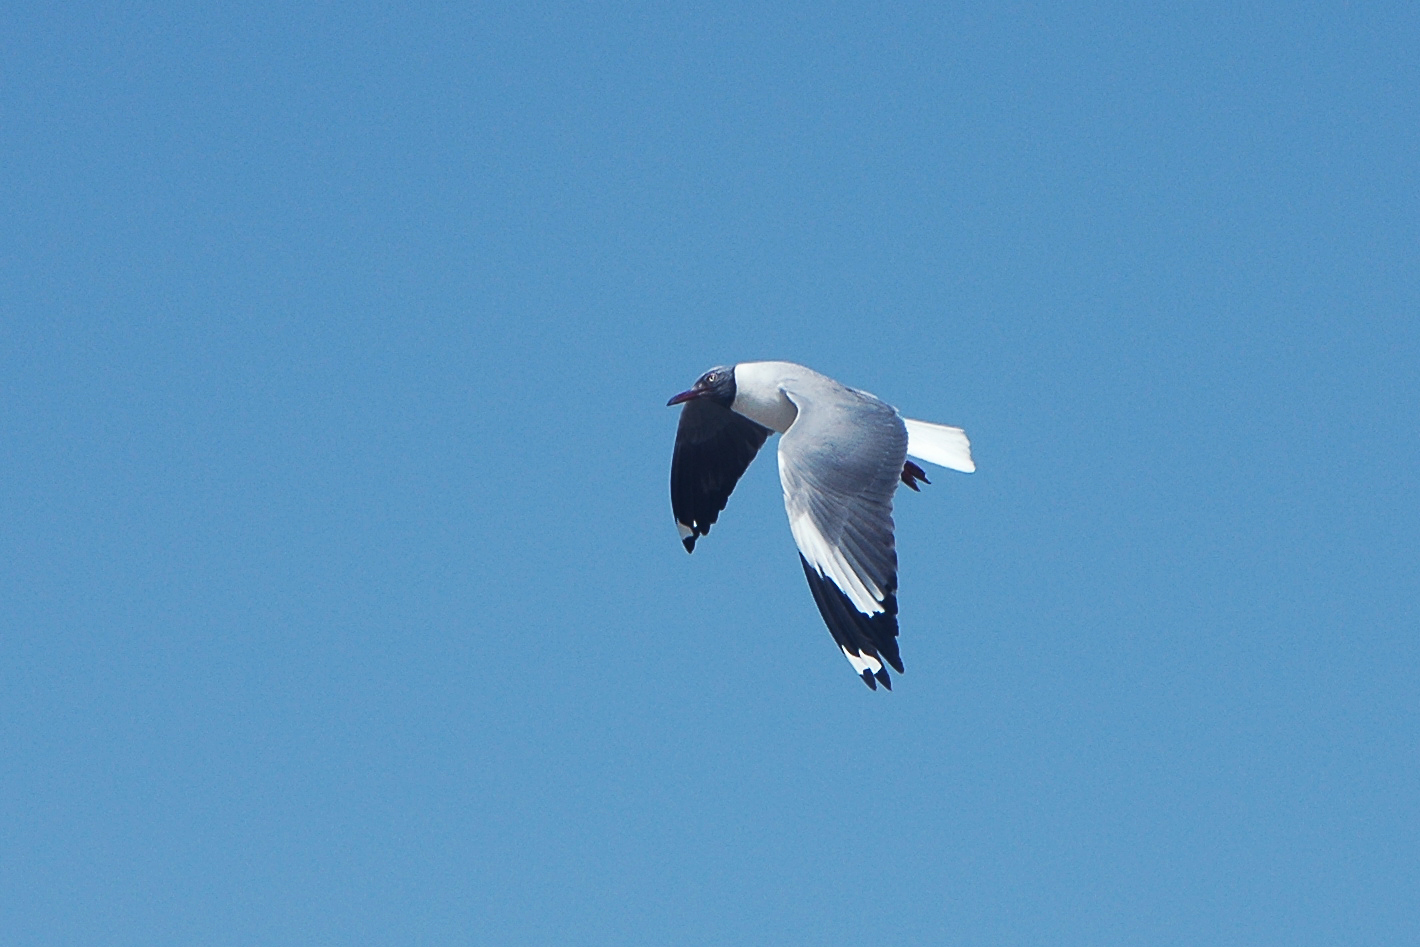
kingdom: Animalia
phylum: Chordata
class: Aves
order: Charadriiformes
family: Laridae
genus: Chroicocephalus
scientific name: Chroicocephalus cirrocephalus
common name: Grey-headed gull
